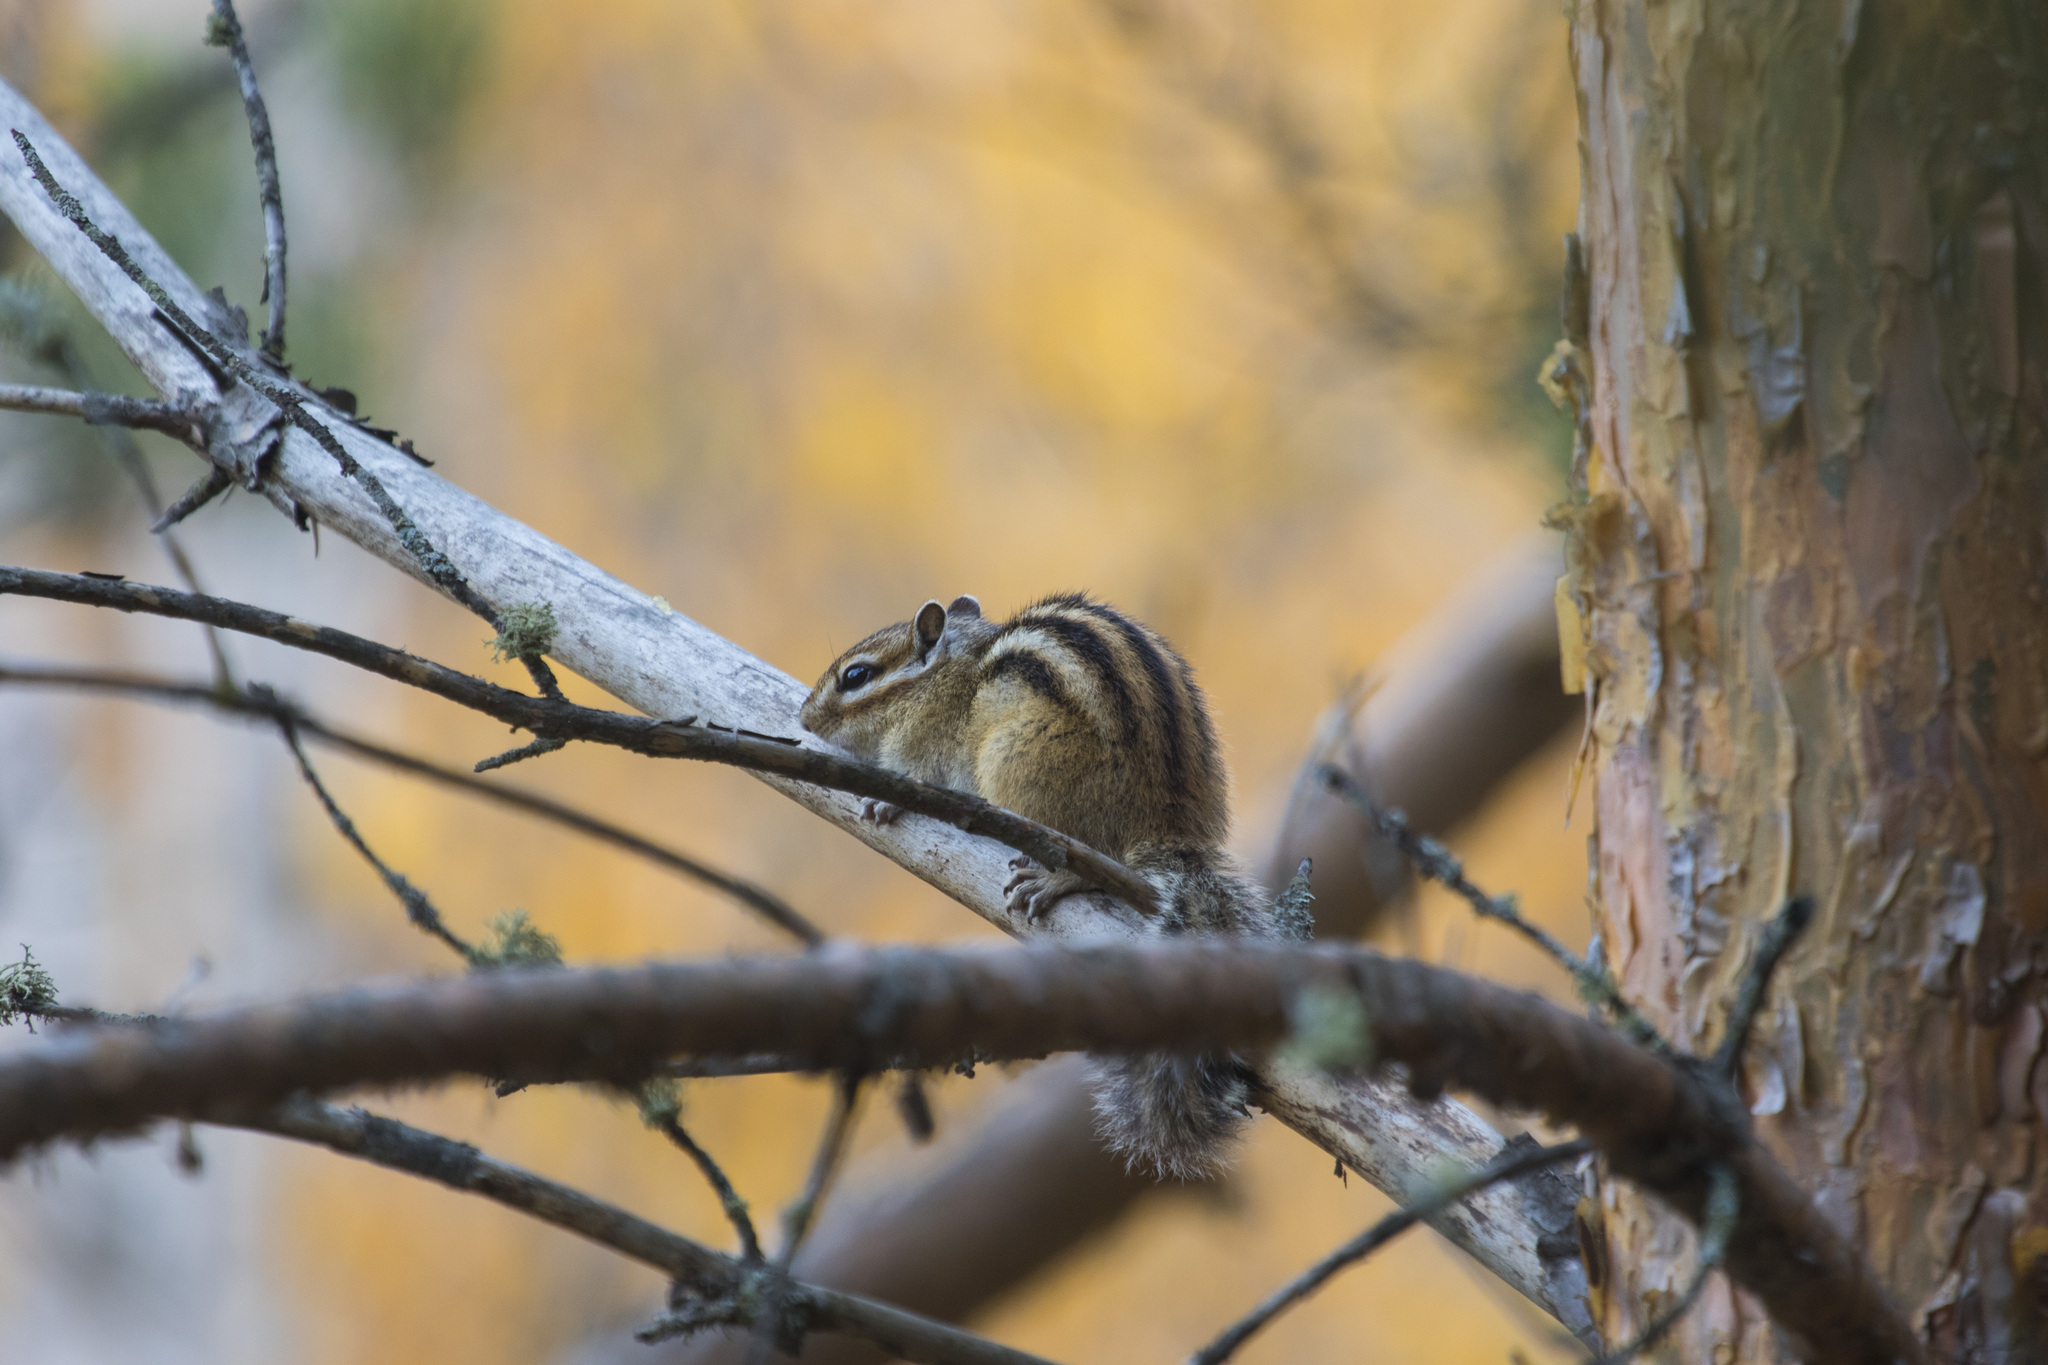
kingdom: Animalia
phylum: Chordata
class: Mammalia
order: Rodentia
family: Sciuridae
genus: Tamias
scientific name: Tamias sibiricus
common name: Siberian chipmunk
